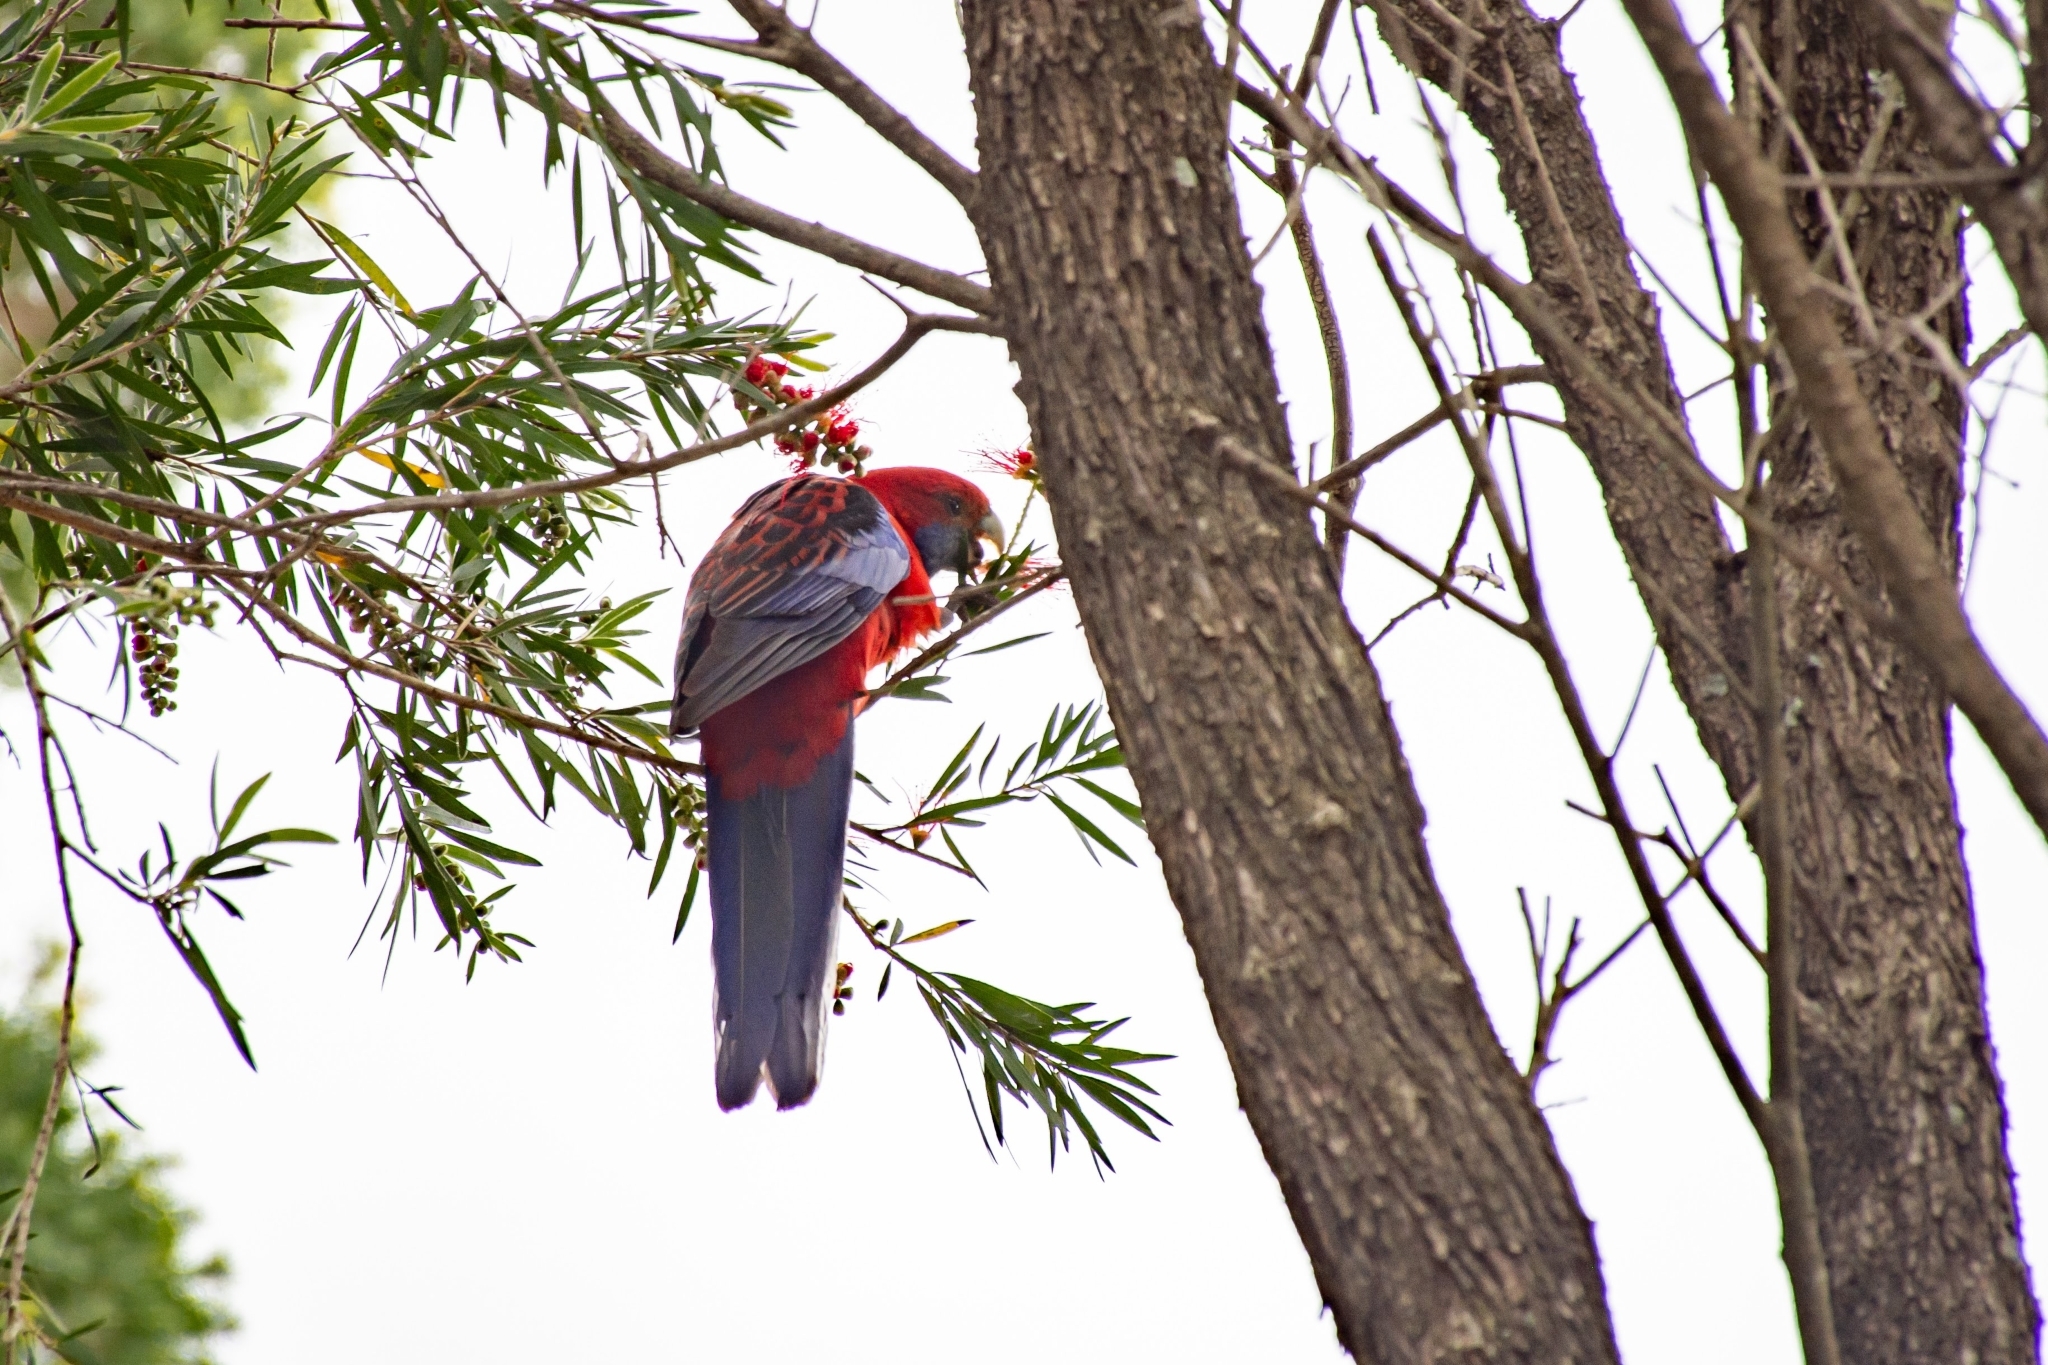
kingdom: Animalia
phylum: Chordata
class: Aves
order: Psittaciformes
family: Psittacidae
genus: Platycercus
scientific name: Platycercus elegans
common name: Crimson rosella
